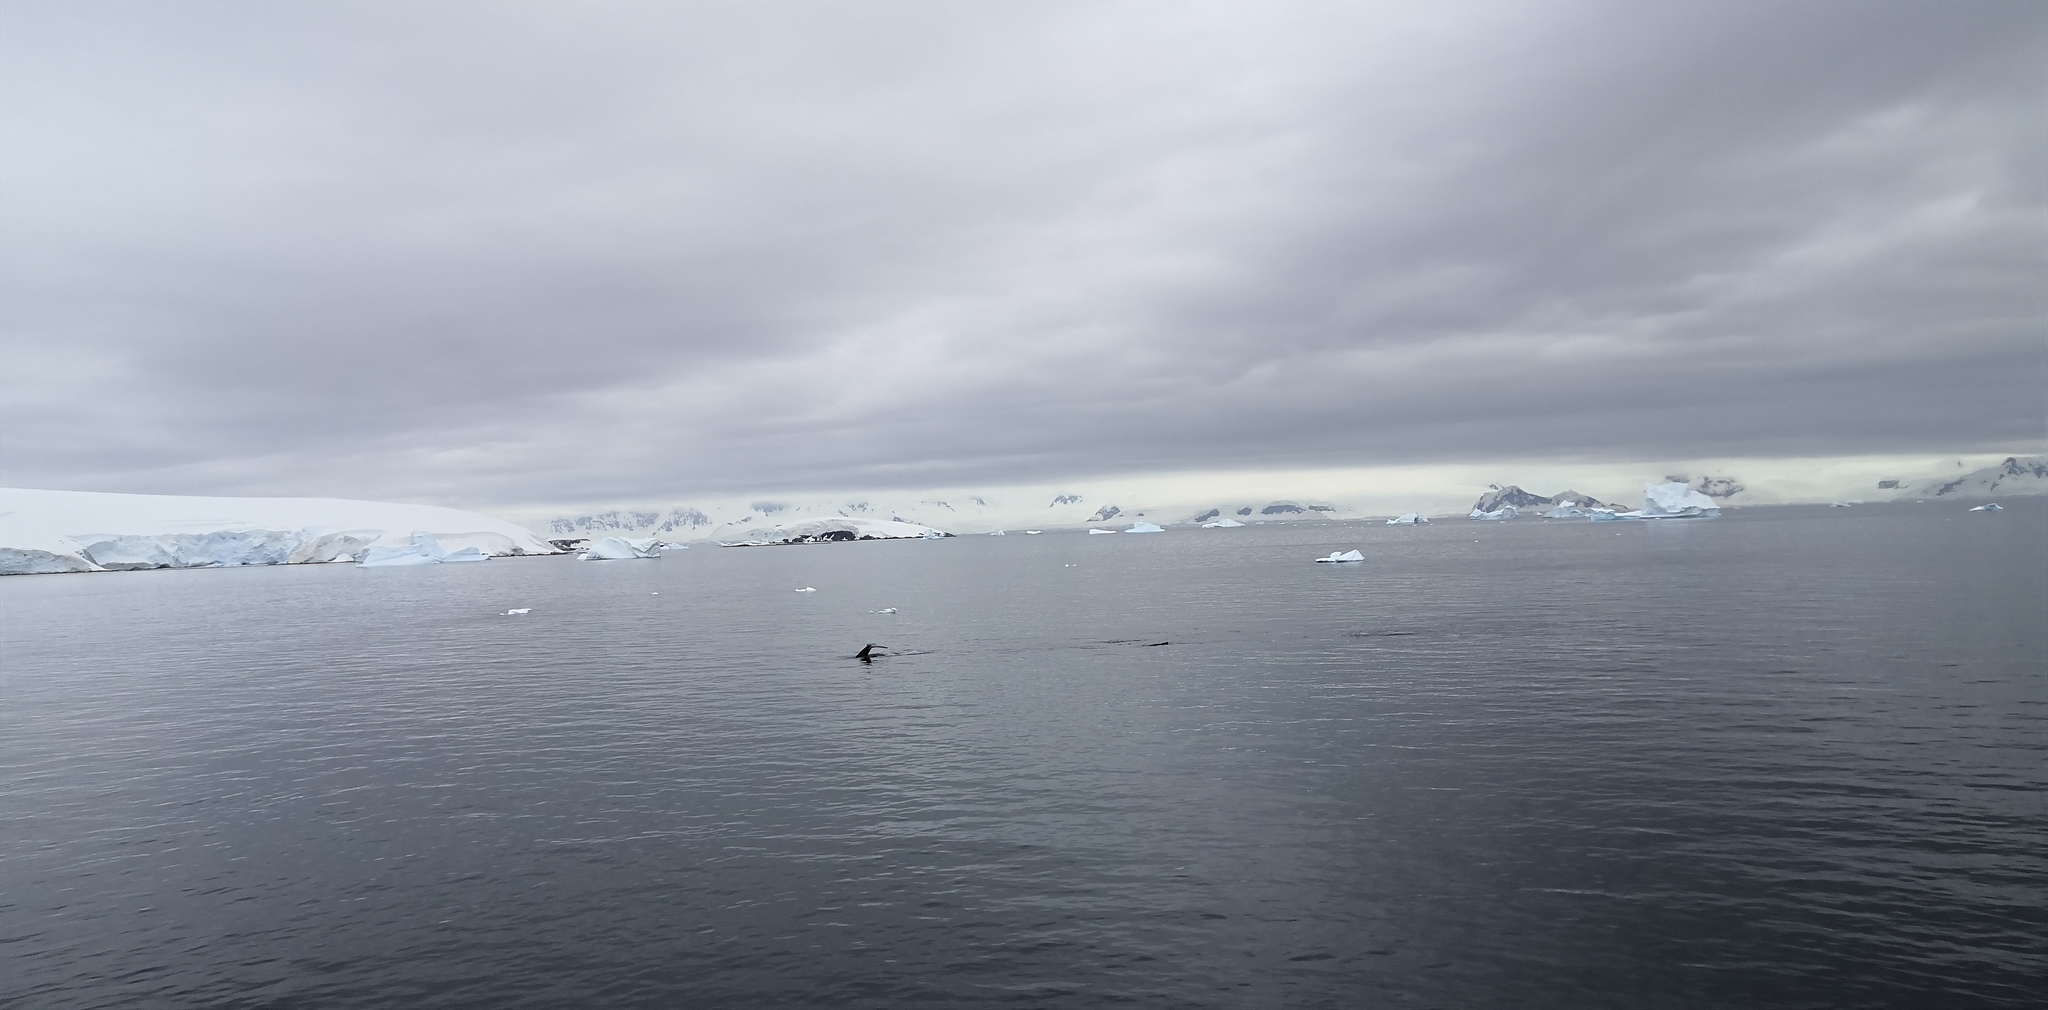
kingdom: Animalia
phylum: Chordata
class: Mammalia
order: Cetacea
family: Balaenopteridae
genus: Megaptera
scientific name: Megaptera novaeangliae
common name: Humpback whale
